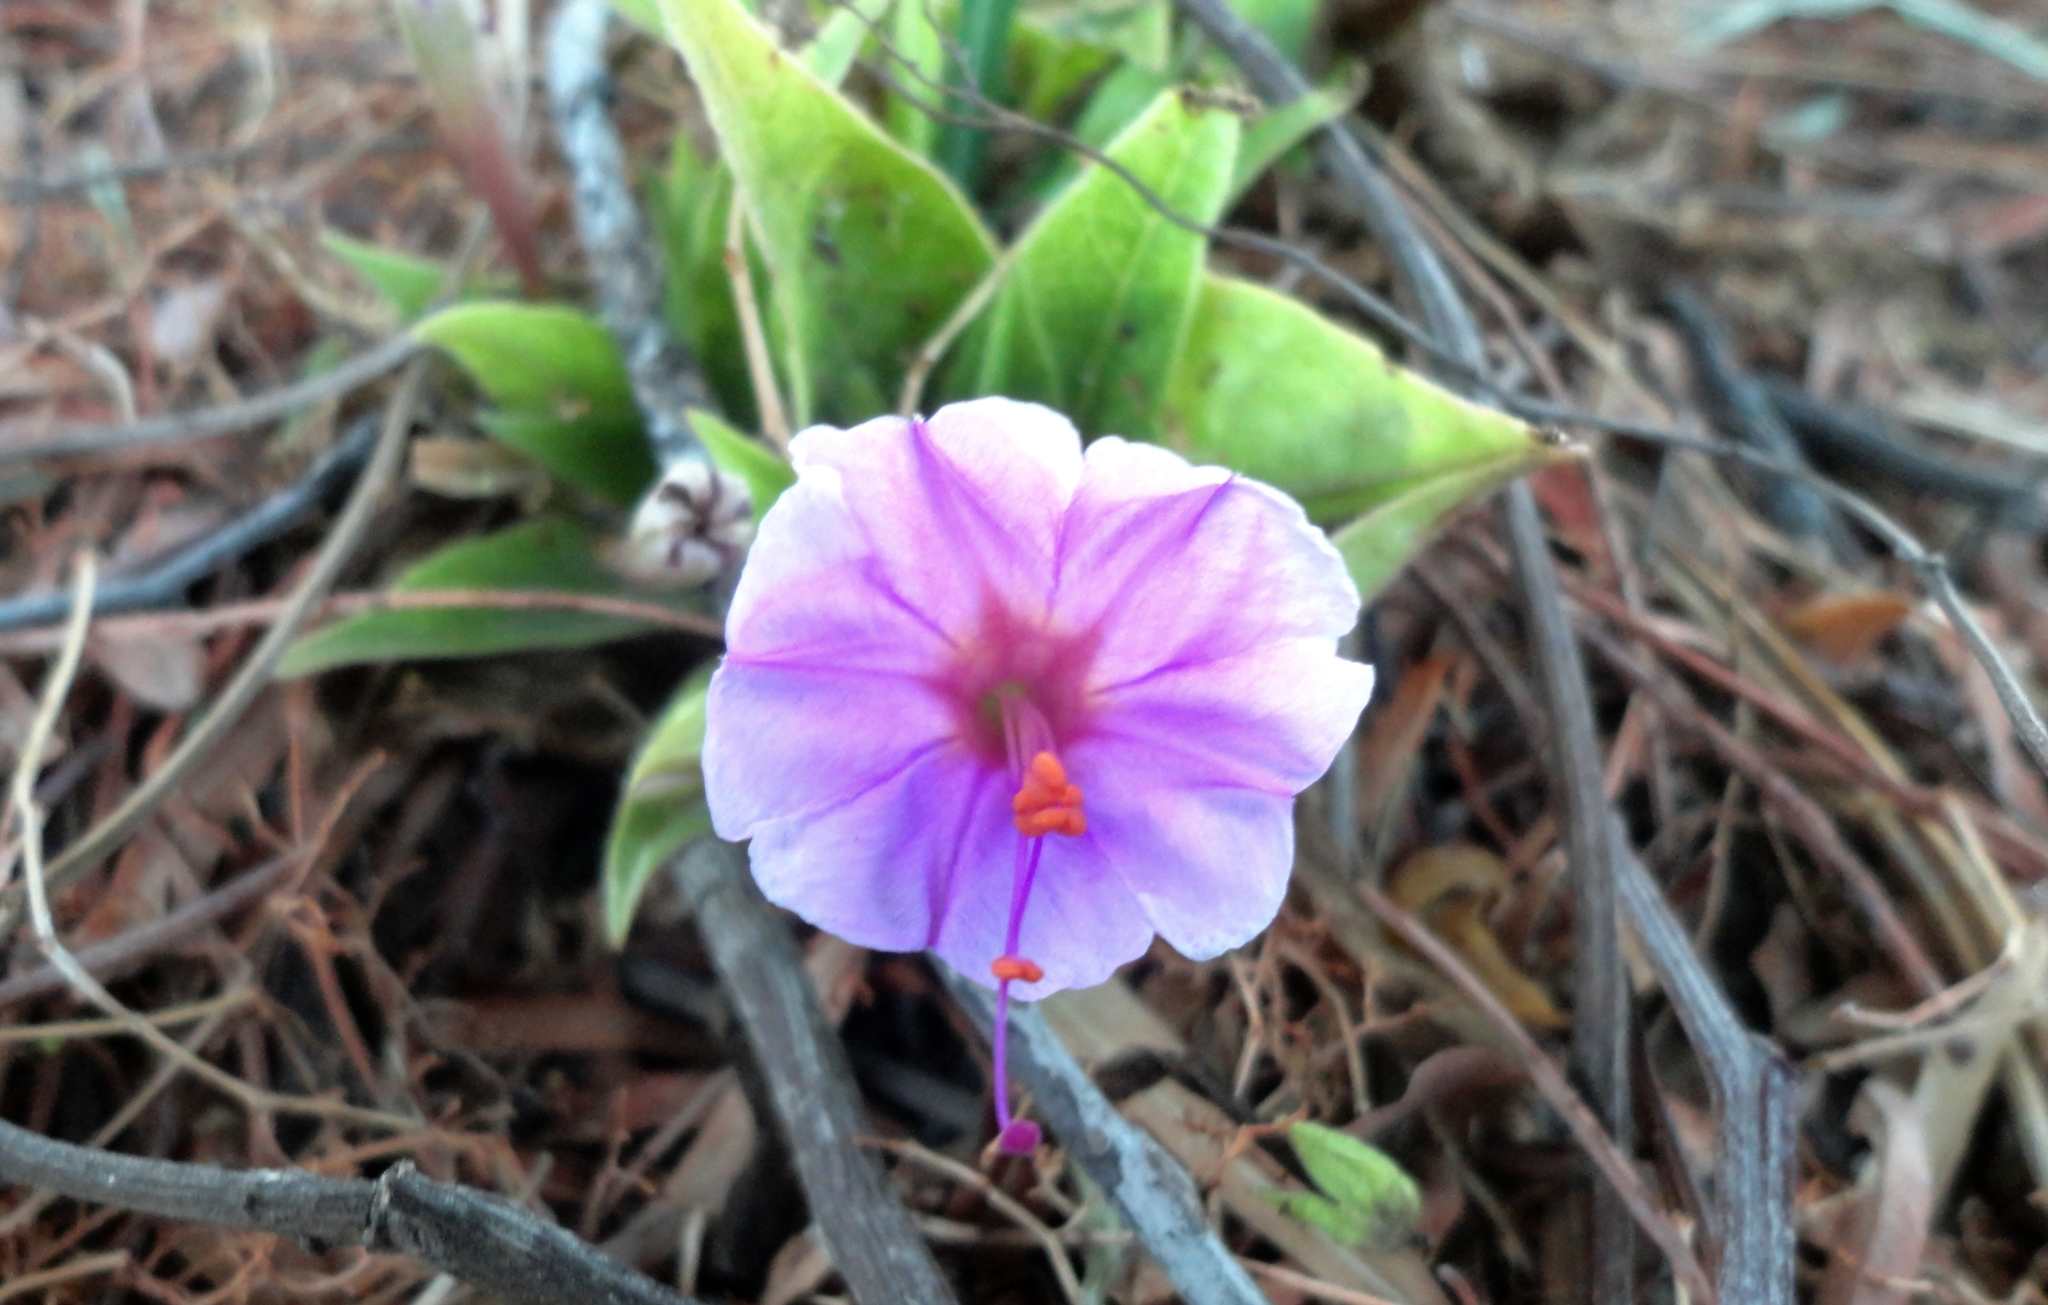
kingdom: Plantae
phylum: Tracheophyta
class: Magnoliopsida
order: Caryophyllales
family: Nyctaginaceae
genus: Mirabilis
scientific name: Mirabilis jalapa
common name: Marvel-of-peru
